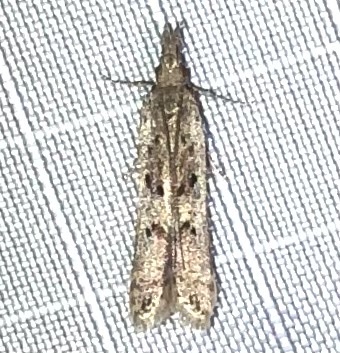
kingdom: Animalia
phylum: Arthropoda
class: Insecta
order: Lepidoptera
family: Gelechiidae
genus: Dichomeris
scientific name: Dichomeris ligulella
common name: Moth
